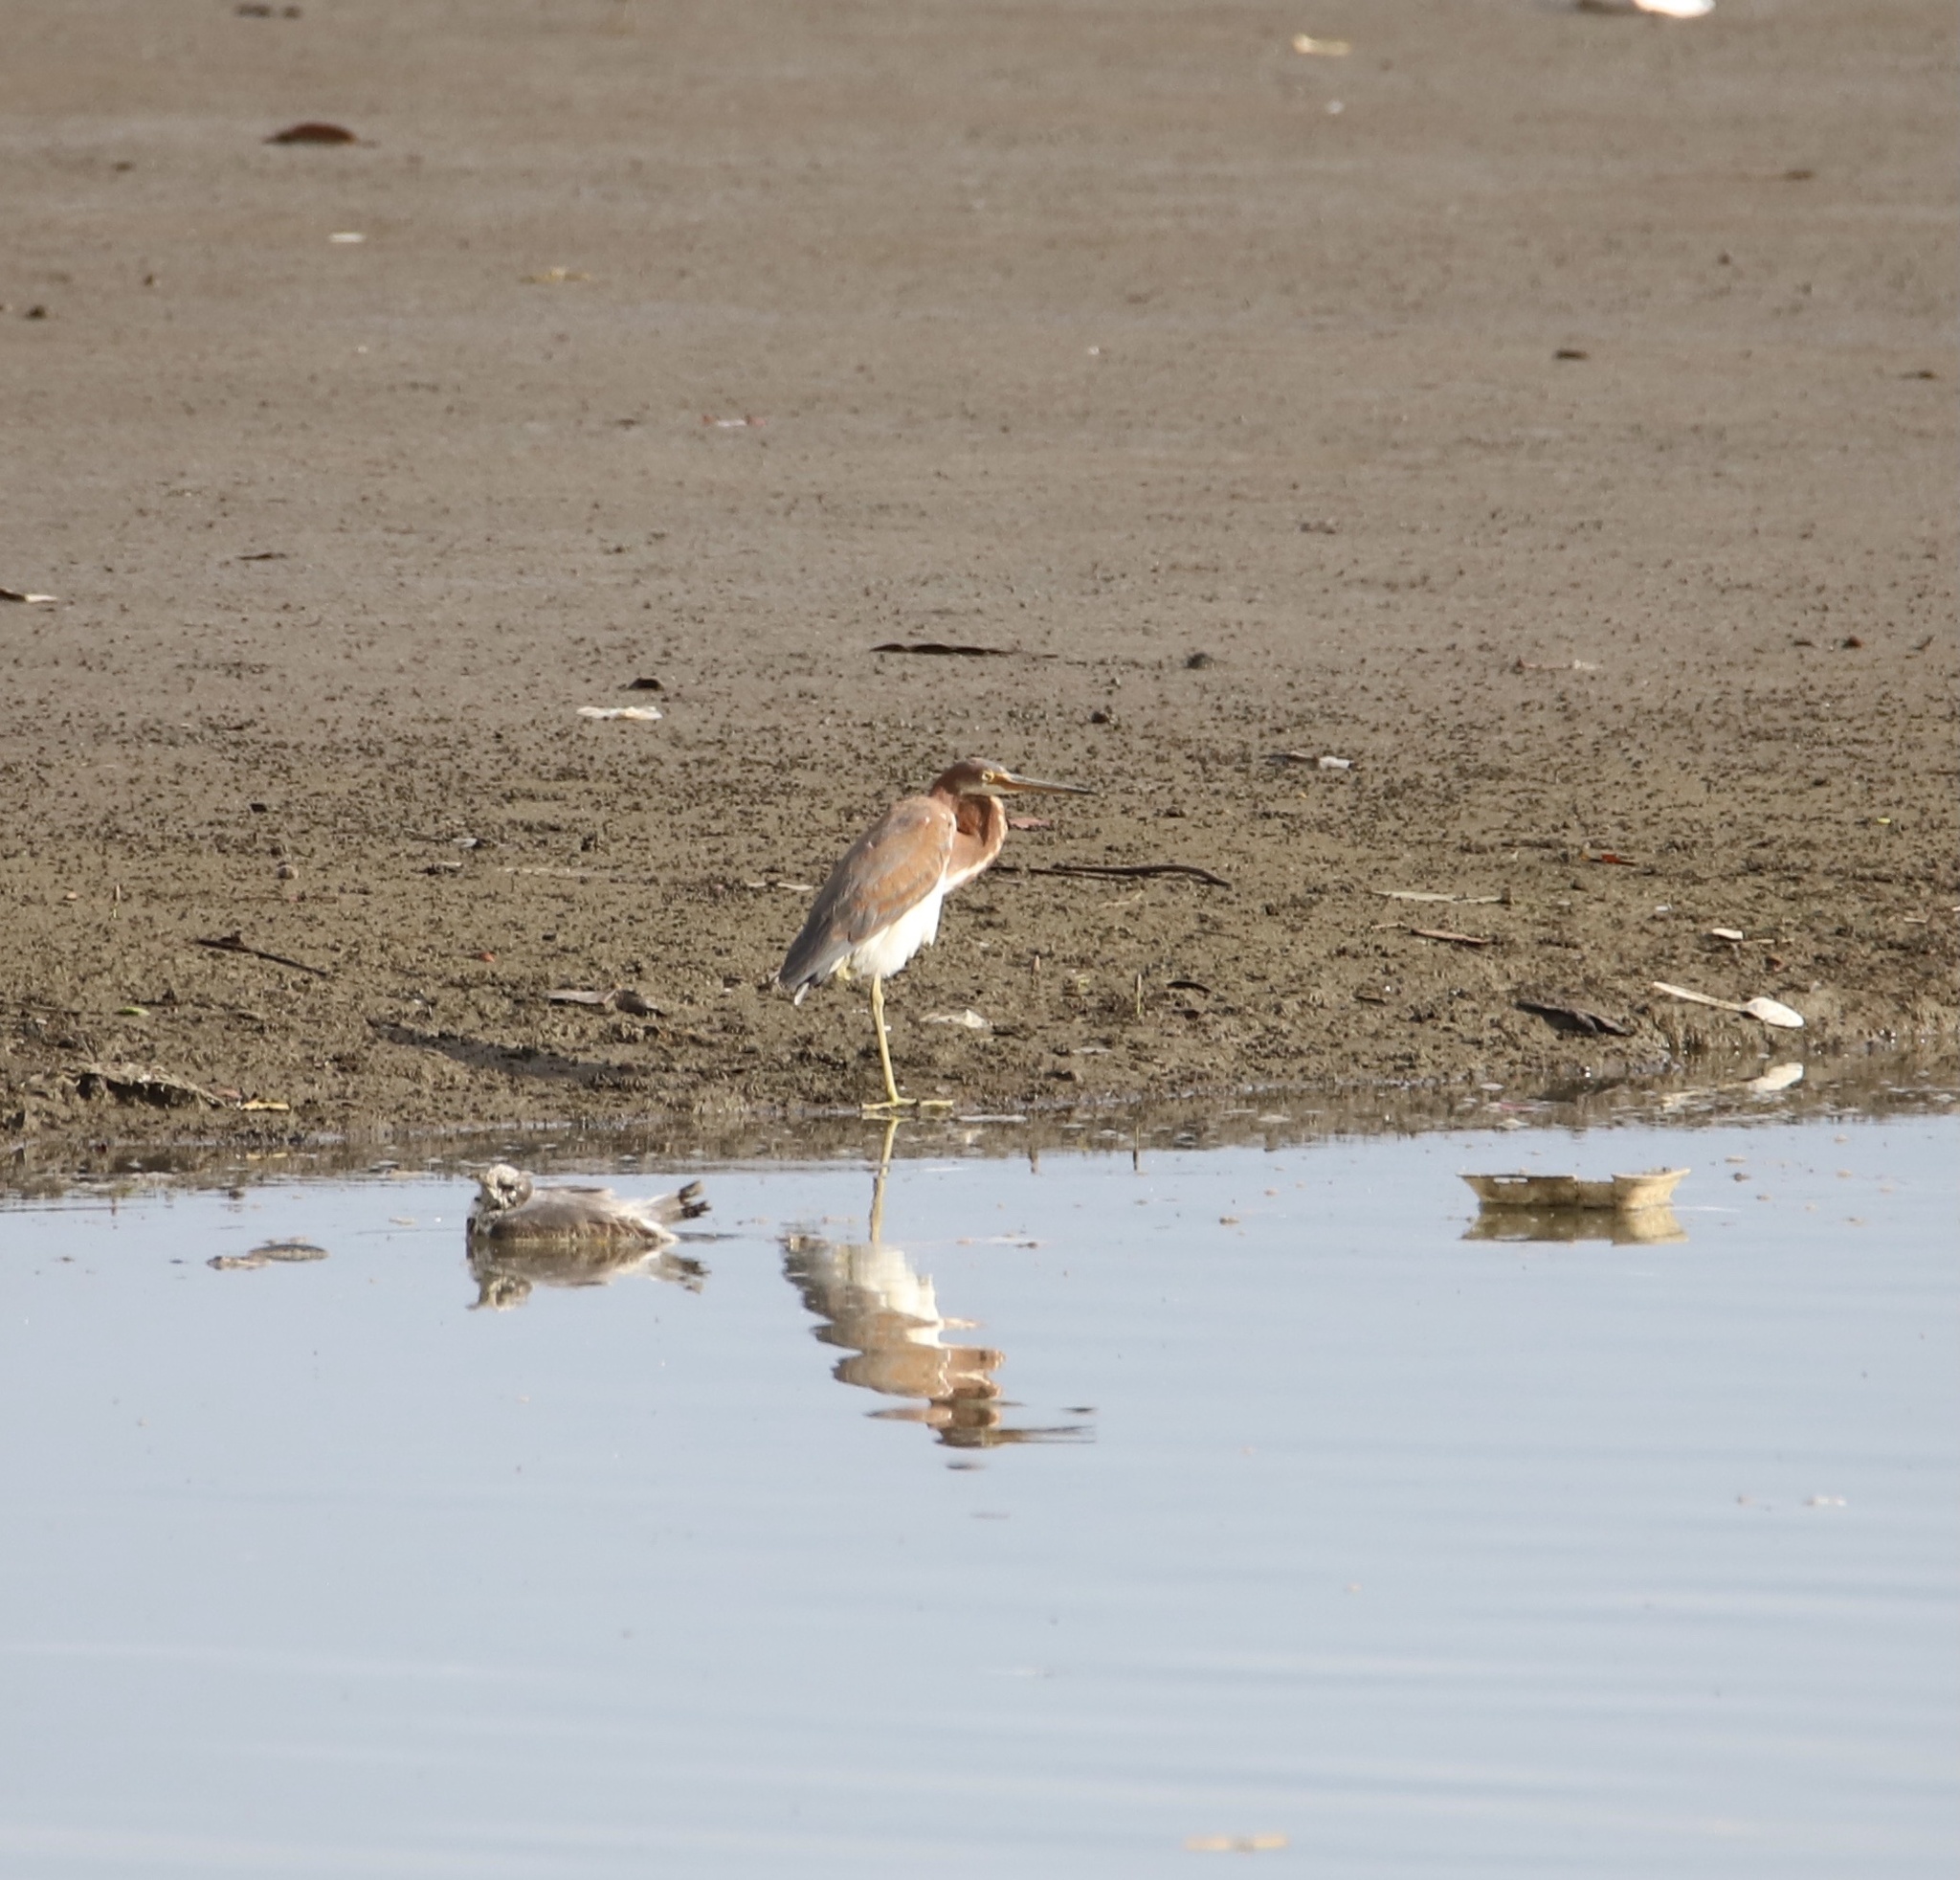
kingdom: Animalia
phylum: Chordata
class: Aves
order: Pelecaniformes
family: Ardeidae
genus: Egretta
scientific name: Egretta tricolor
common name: Tricolored heron
